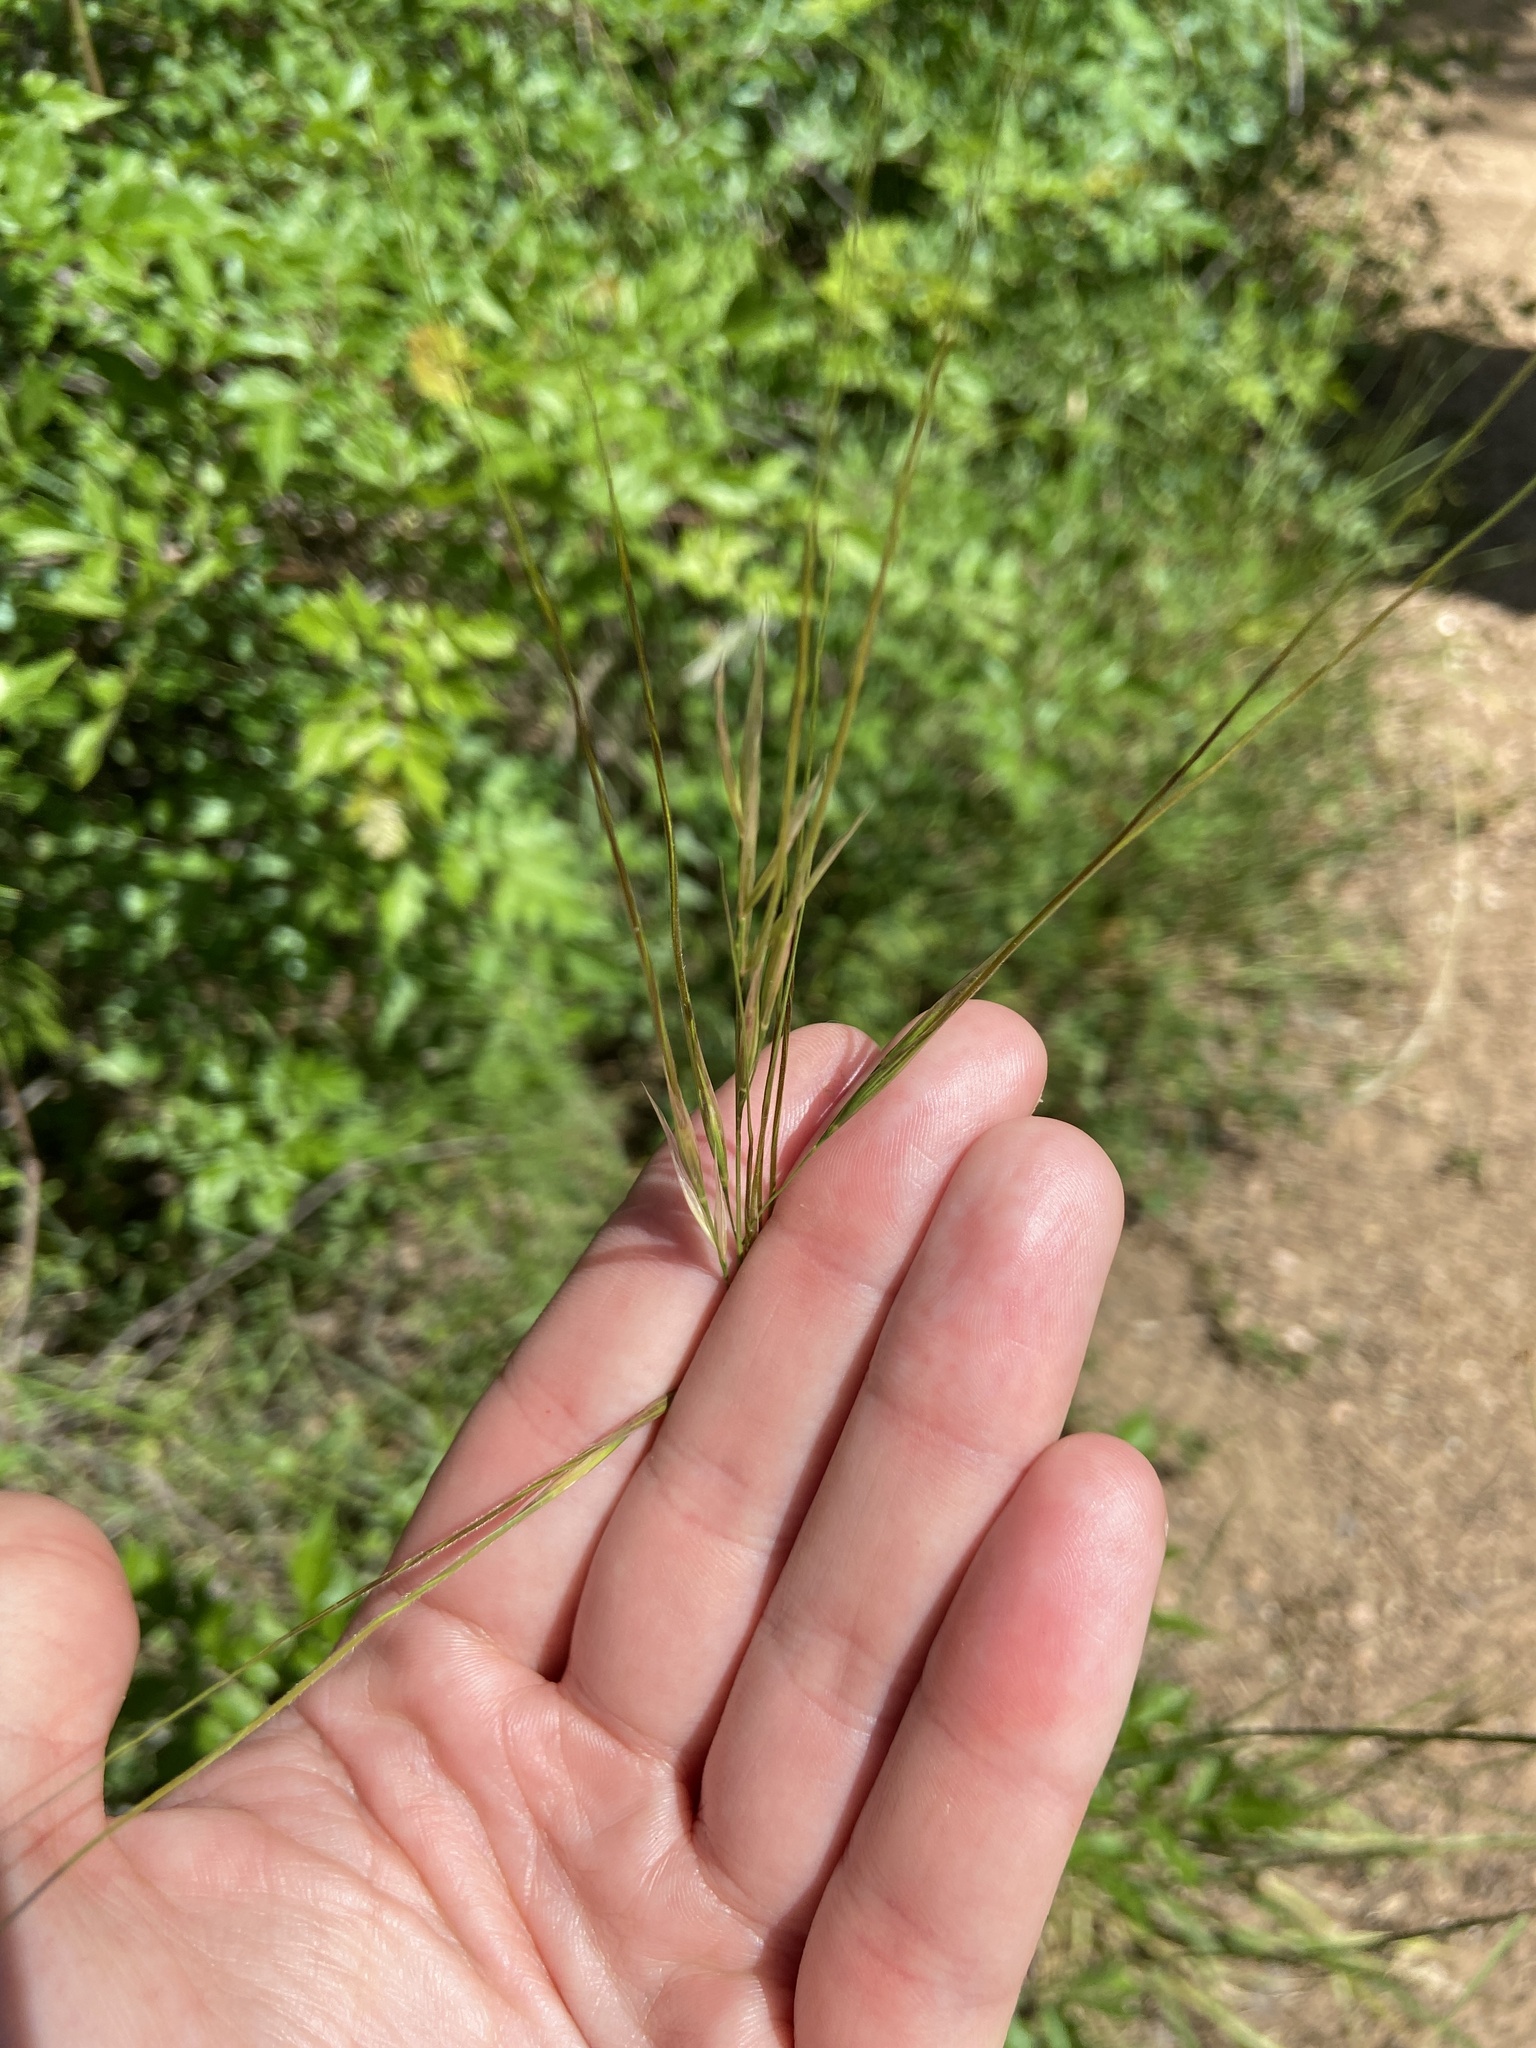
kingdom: Plantae
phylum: Tracheophyta
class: Liliopsida
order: Poales
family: Poaceae
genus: Nassella
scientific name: Nassella leucotricha
